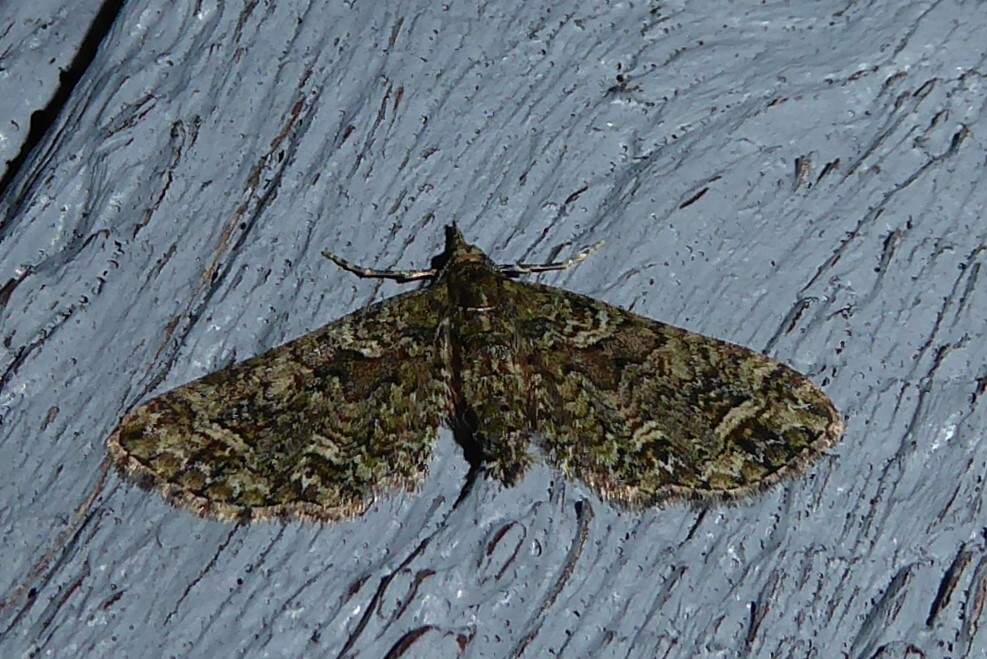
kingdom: Animalia
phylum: Arthropoda
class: Insecta
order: Lepidoptera
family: Geometridae
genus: Idaea
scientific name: Idaea mutanda
